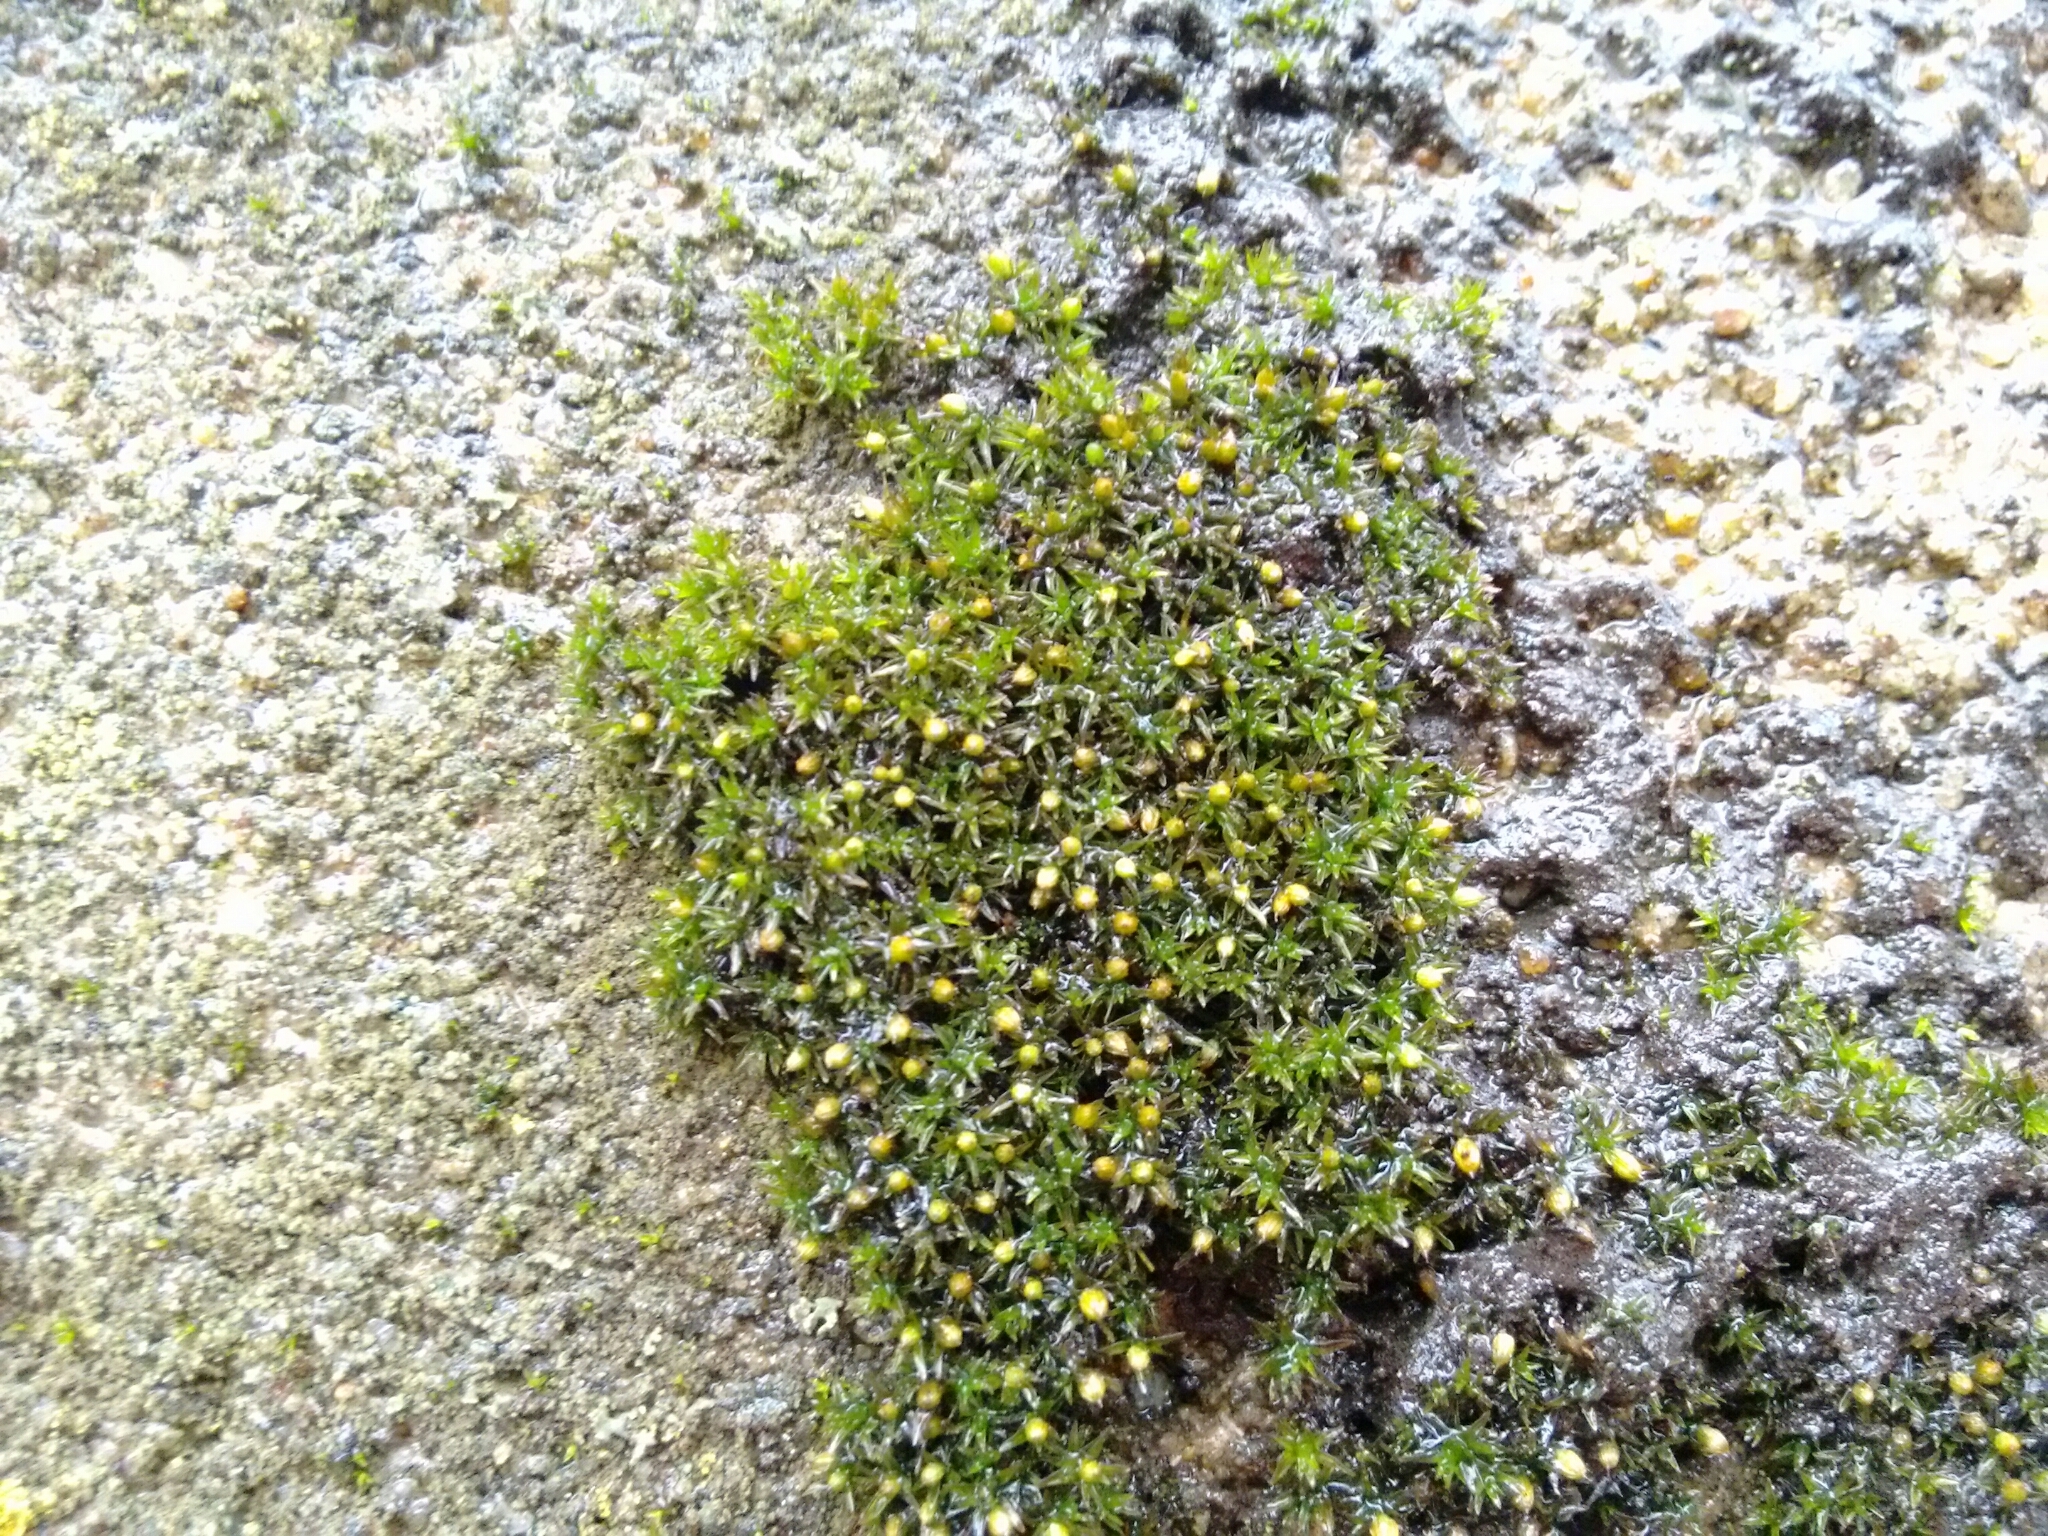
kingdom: Plantae
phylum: Bryophyta
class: Bryopsida
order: Orthotrichales
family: Orthotrichaceae
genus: Orthotrichum
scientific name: Orthotrichum pusillum
